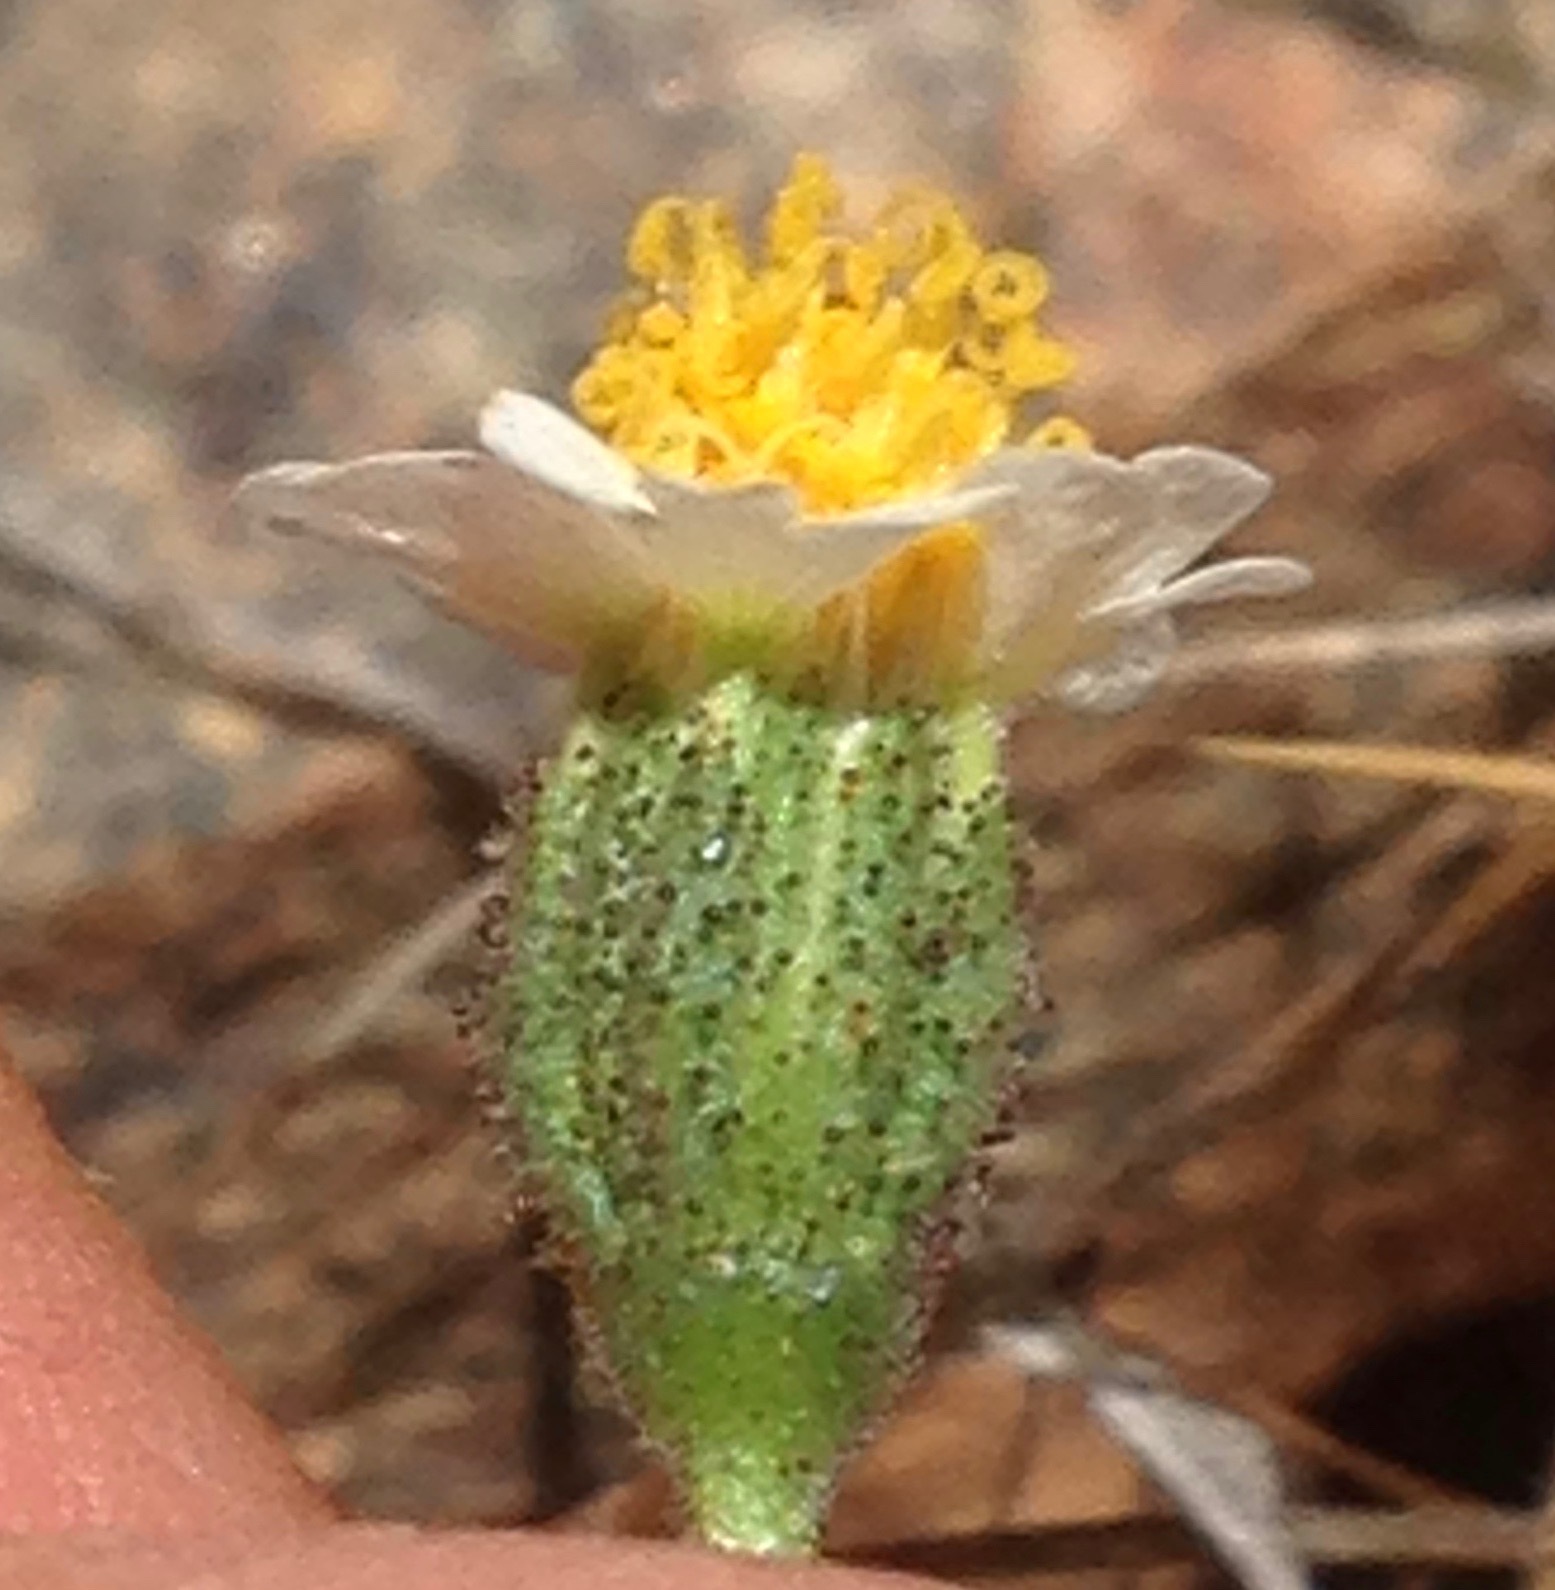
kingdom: Plantae
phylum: Tracheophyta
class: Magnoliopsida
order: Asterales
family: Asteraceae
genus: Layia
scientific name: Layia glandulosa
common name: White layia
